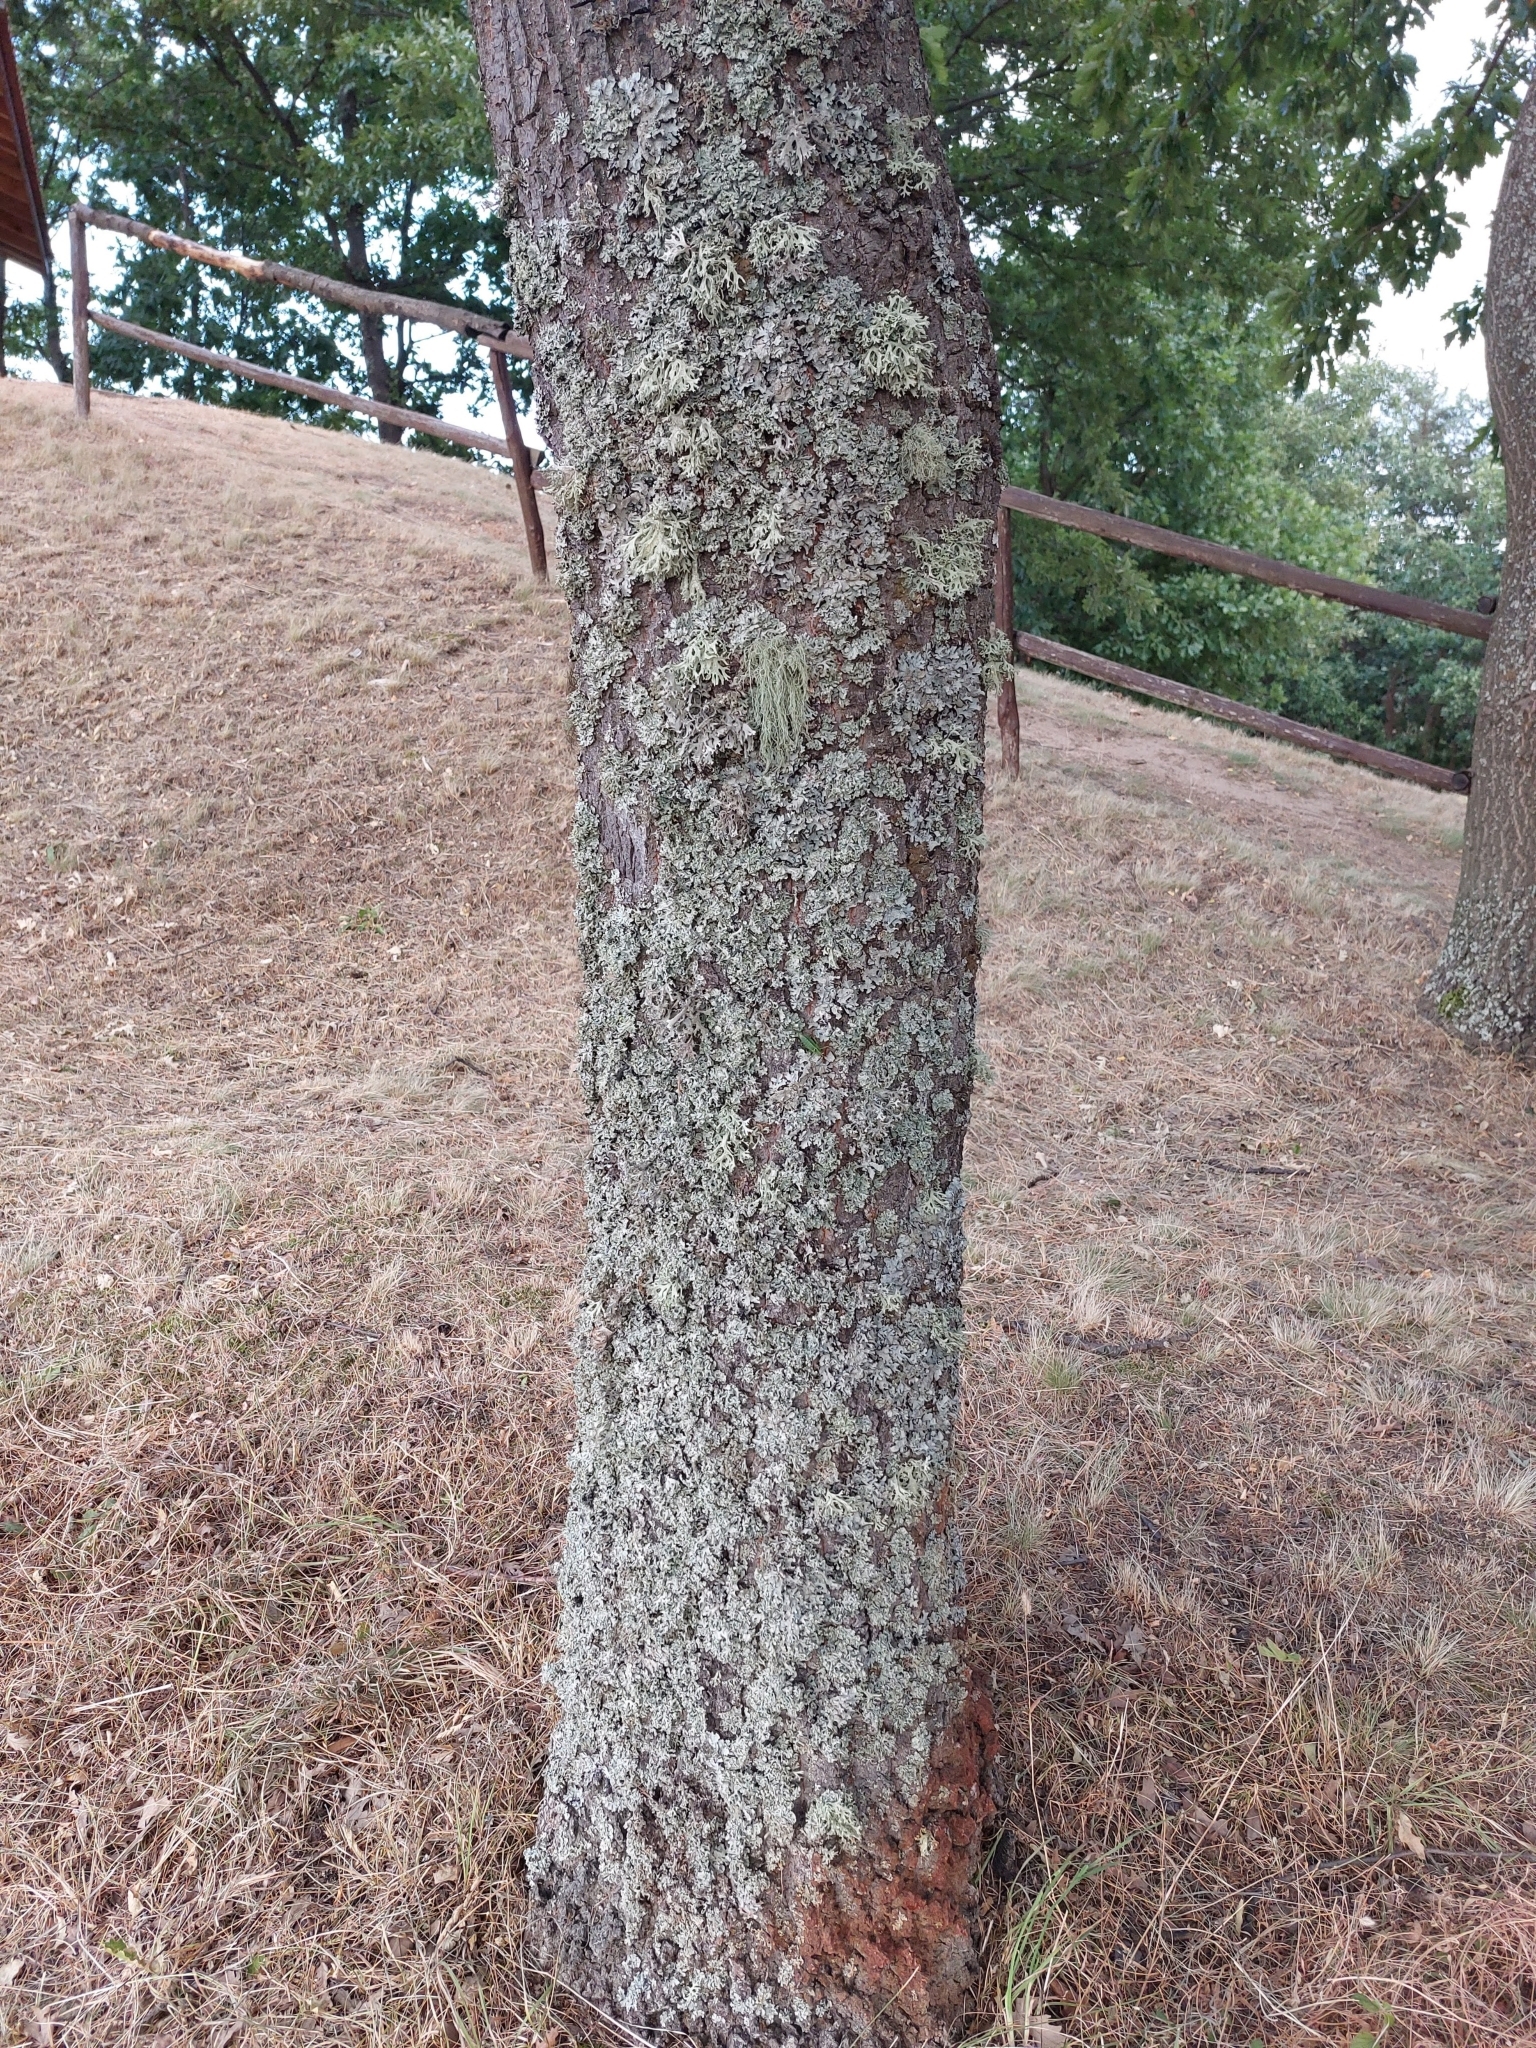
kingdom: Fungi
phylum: Ascomycota
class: Lecanoromycetes
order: Lecanorales
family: Parmeliaceae
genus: Evernia
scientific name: Evernia prunastri
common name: Oak moss
